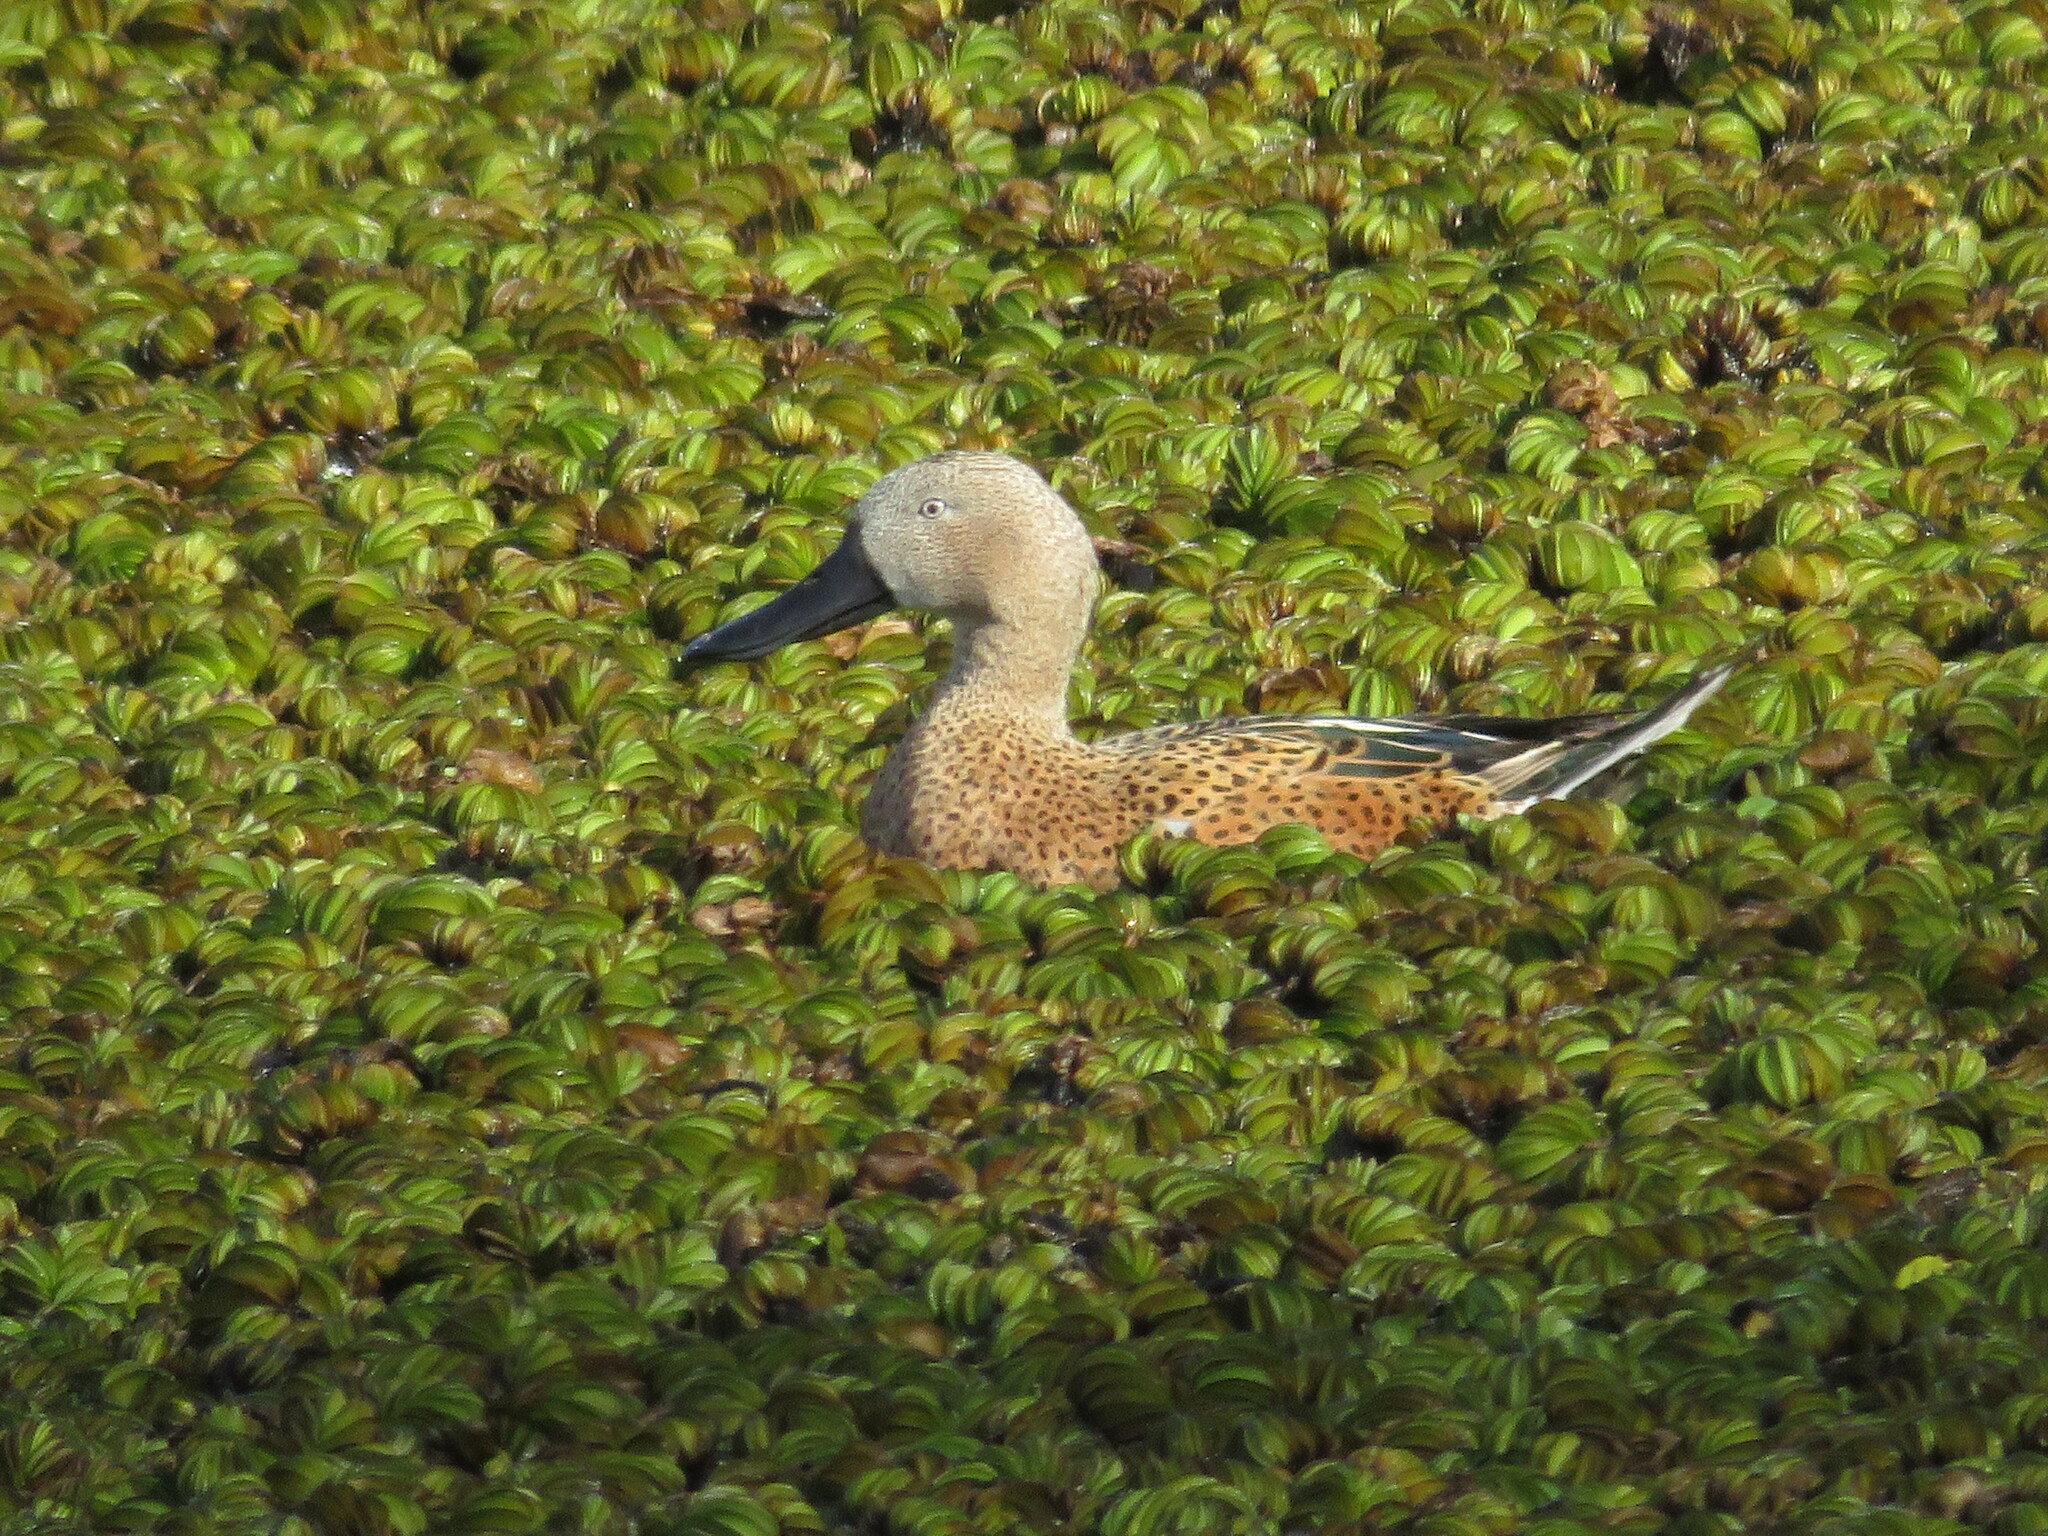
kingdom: Animalia
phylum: Chordata
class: Aves
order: Anseriformes
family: Anatidae
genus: Spatula
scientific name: Spatula platalea
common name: Red shoveler
